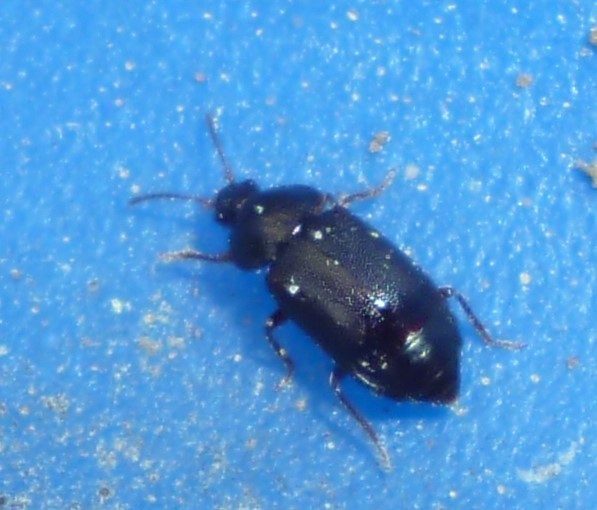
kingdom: Animalia
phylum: Arthropoda
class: Insecta
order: Coleoptera
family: Staphylinidae
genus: Olophrum
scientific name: Olophrum obtectum
